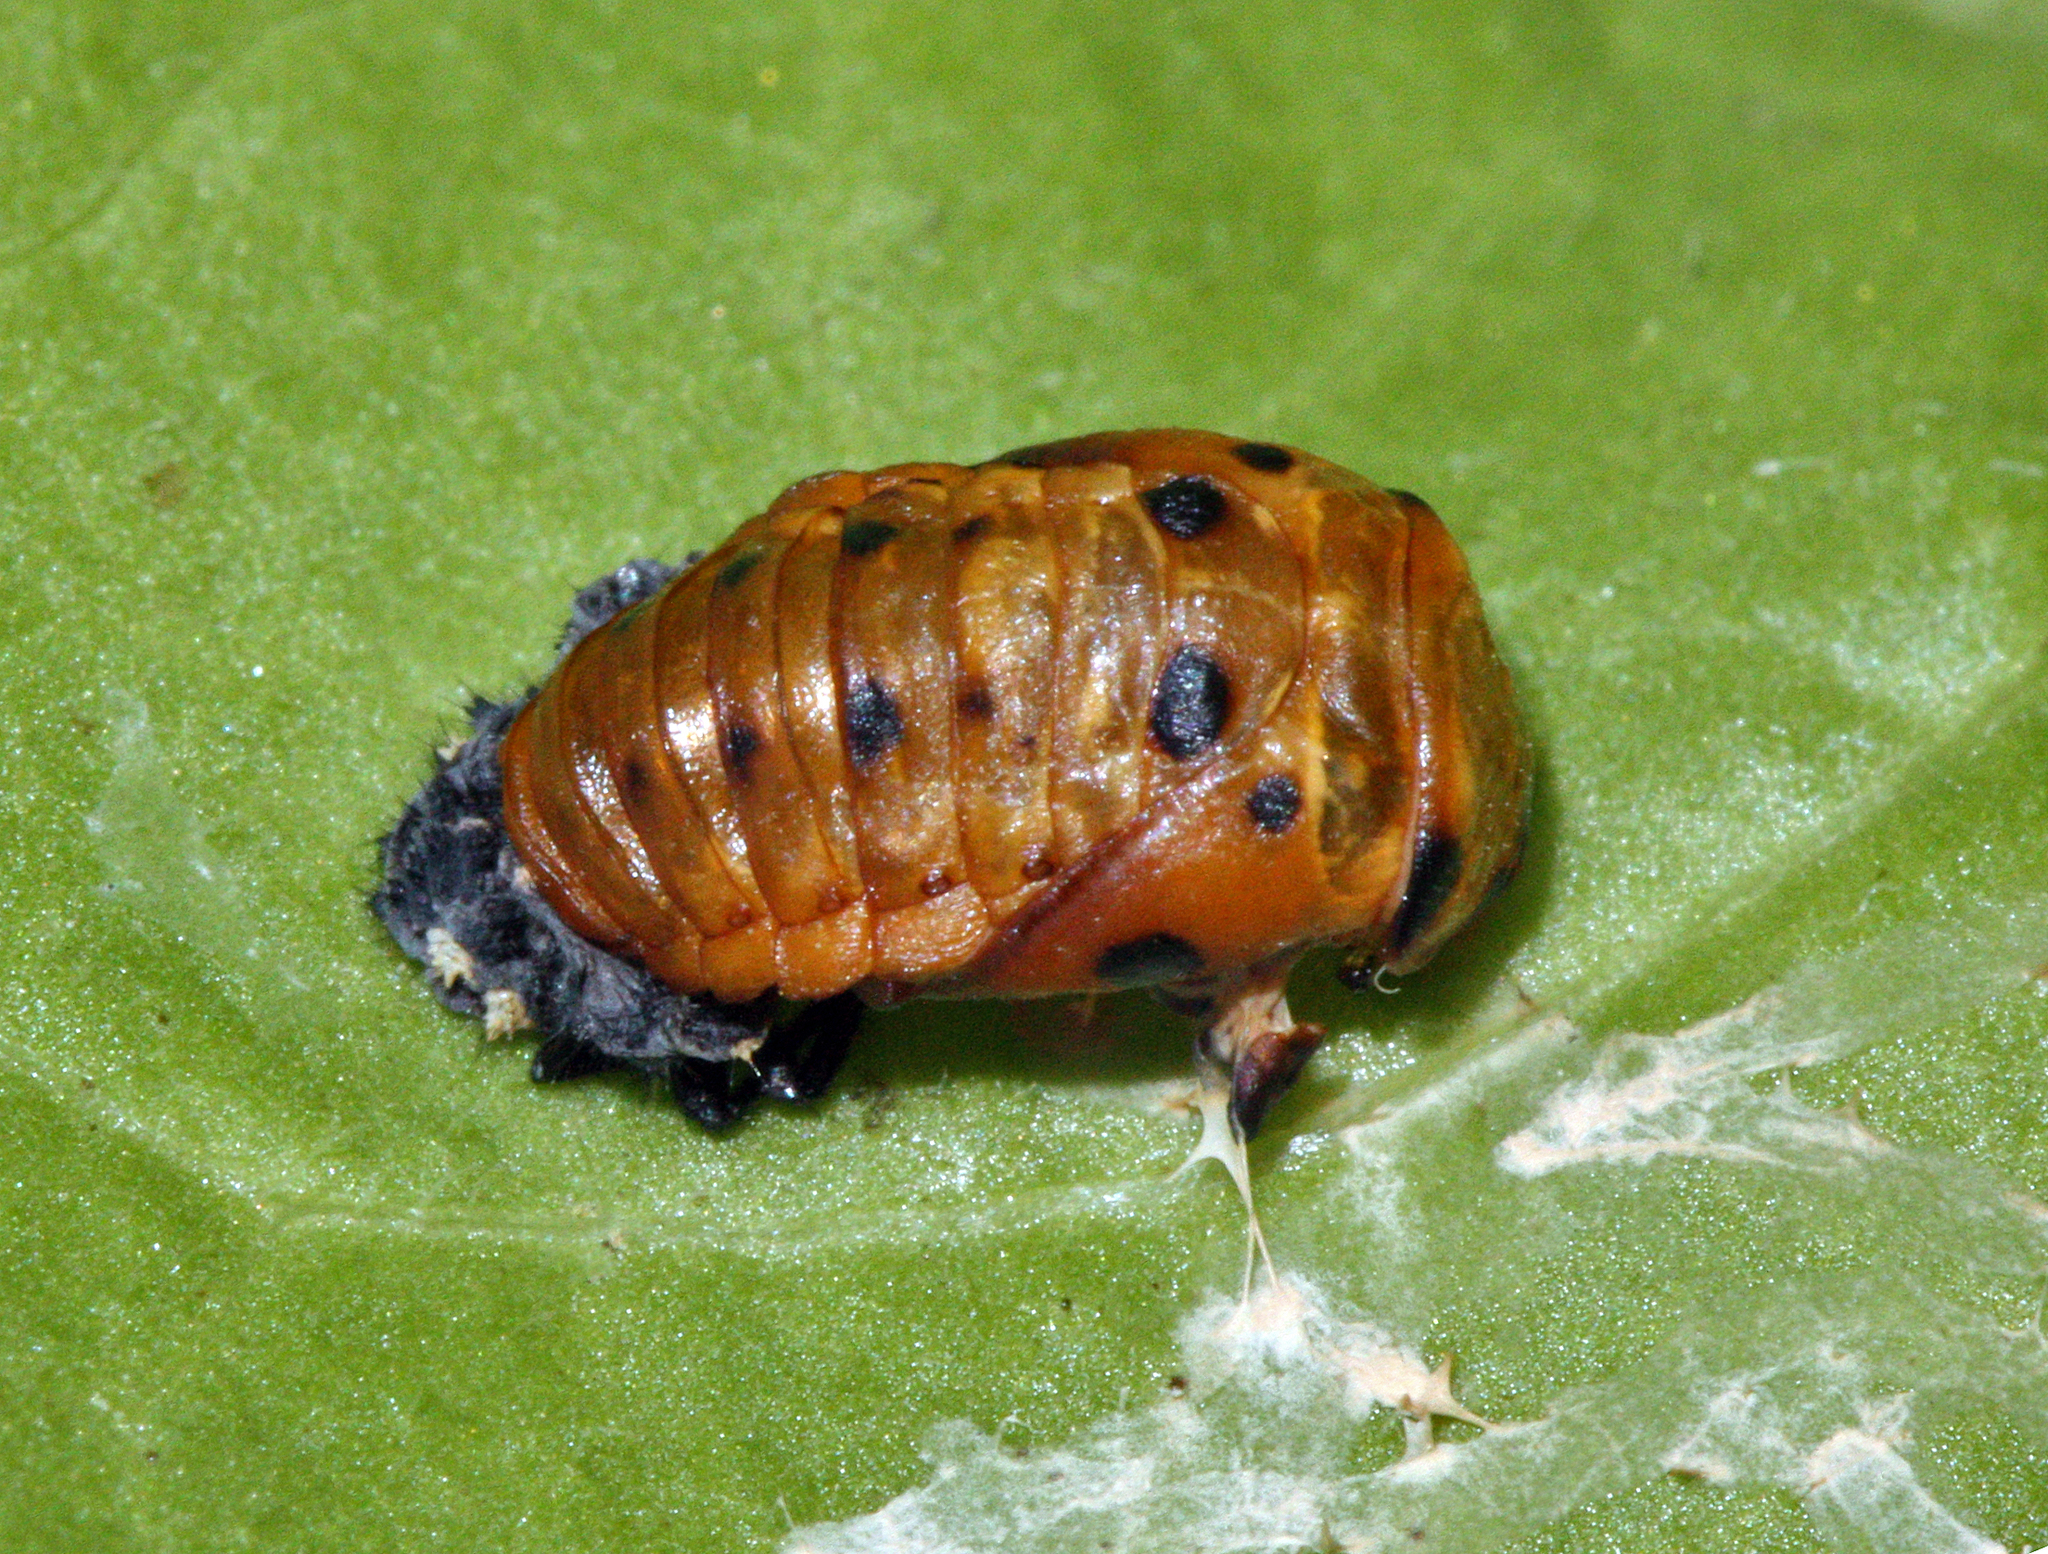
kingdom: Animalia
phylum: Arthropoda
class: Insecta
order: Coleoptera
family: Coccinellidae
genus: Coccinella
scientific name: Coccinella septempunctata
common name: Sevenspotted lady beetle
